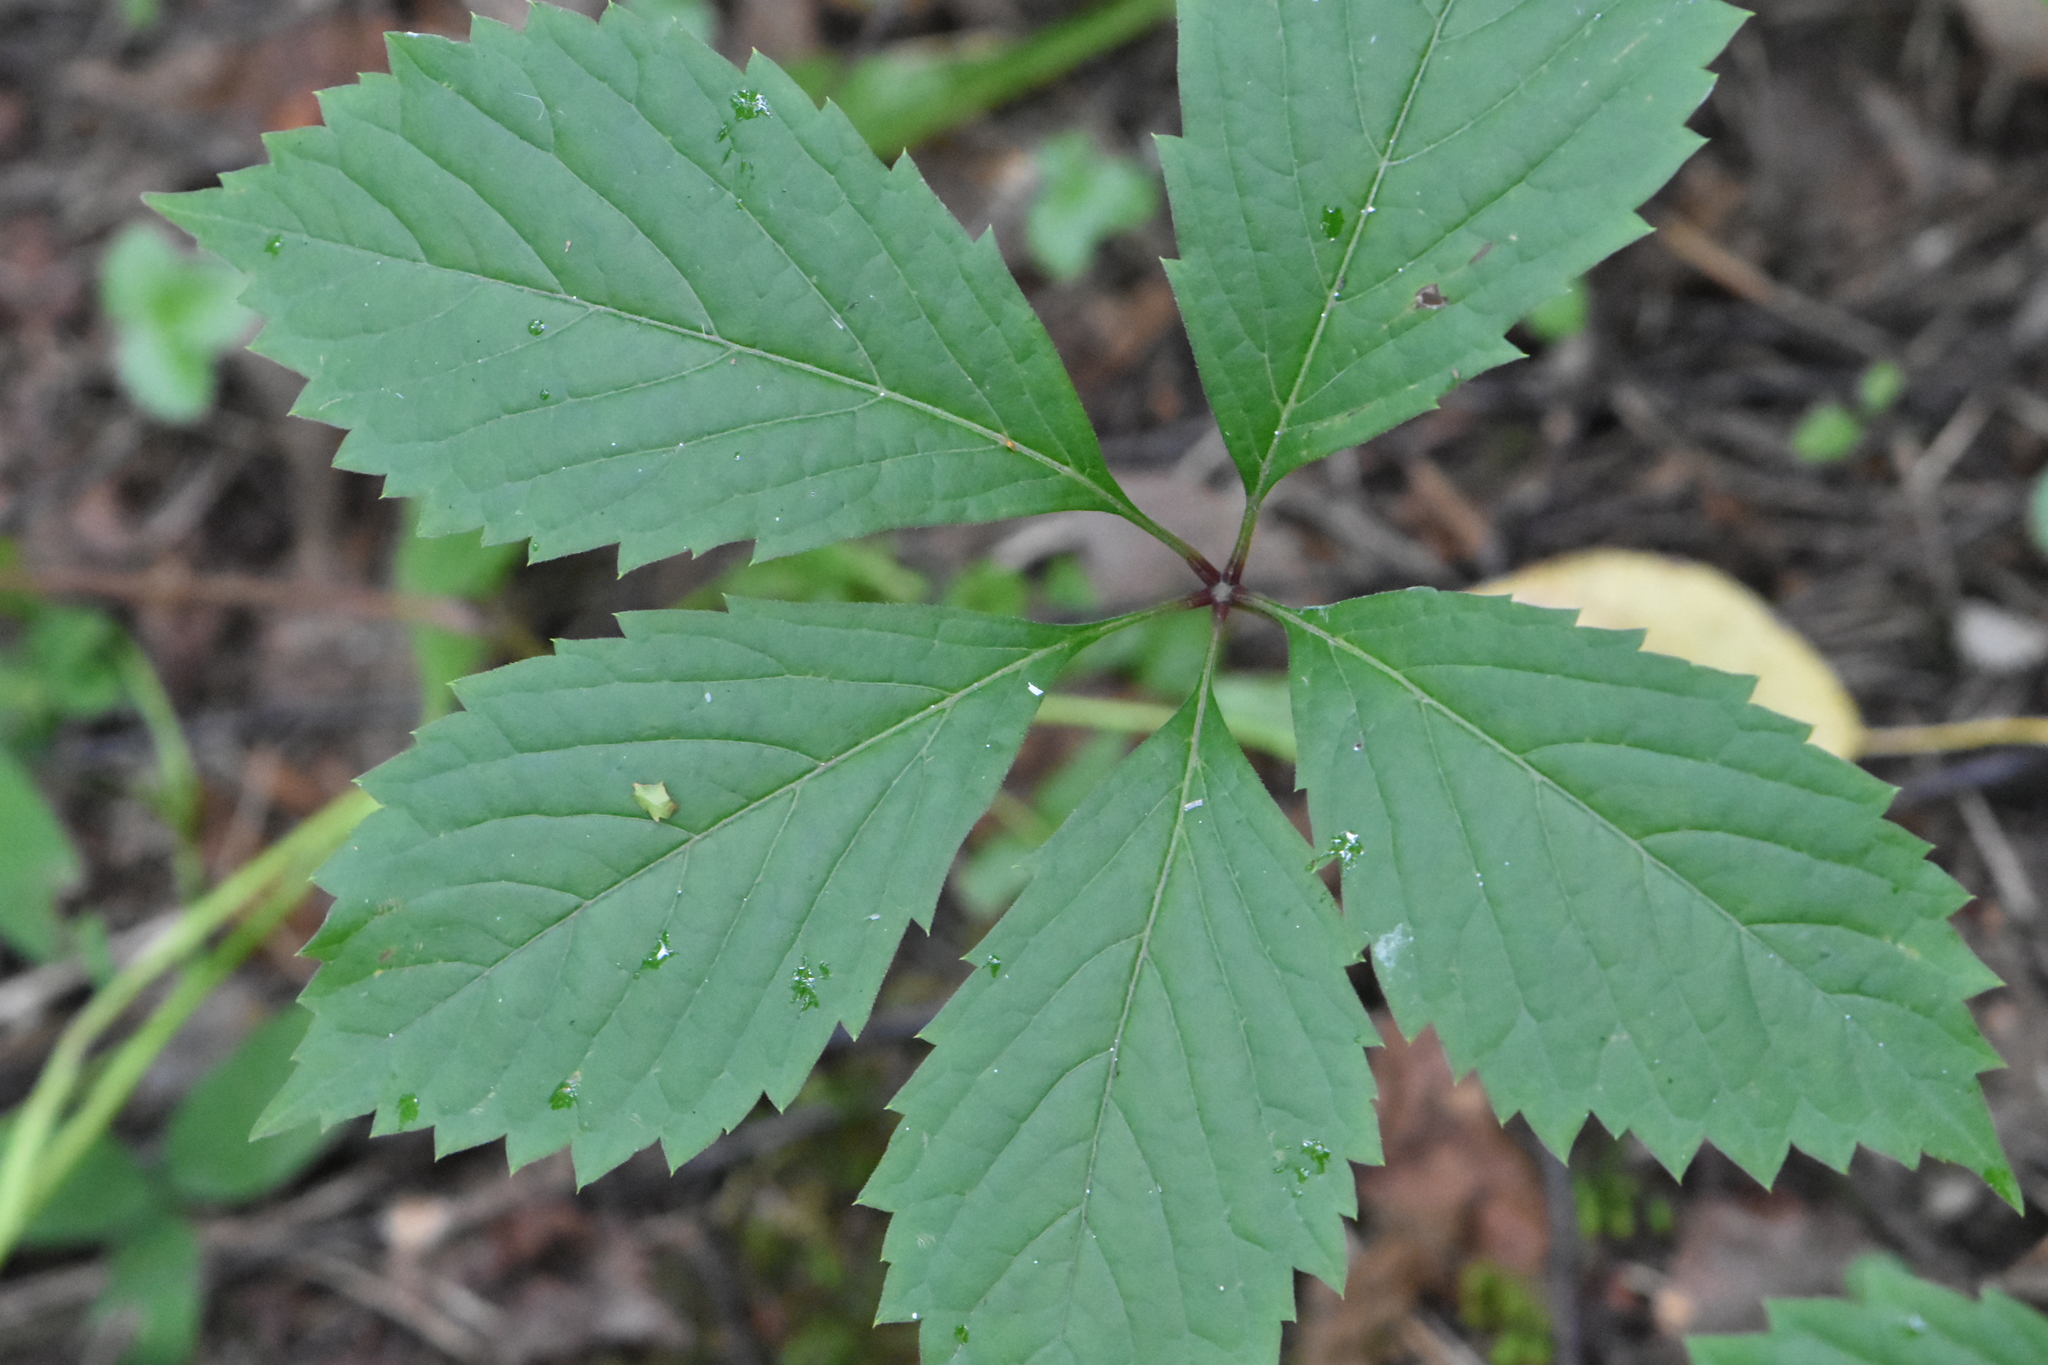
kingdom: Plantae
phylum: Tracheophyta
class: Magnoliopsida
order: Vitales
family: Vitaceae
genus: Parthenocissus
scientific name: Parthenocissus inserta
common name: False virginia-creeper
